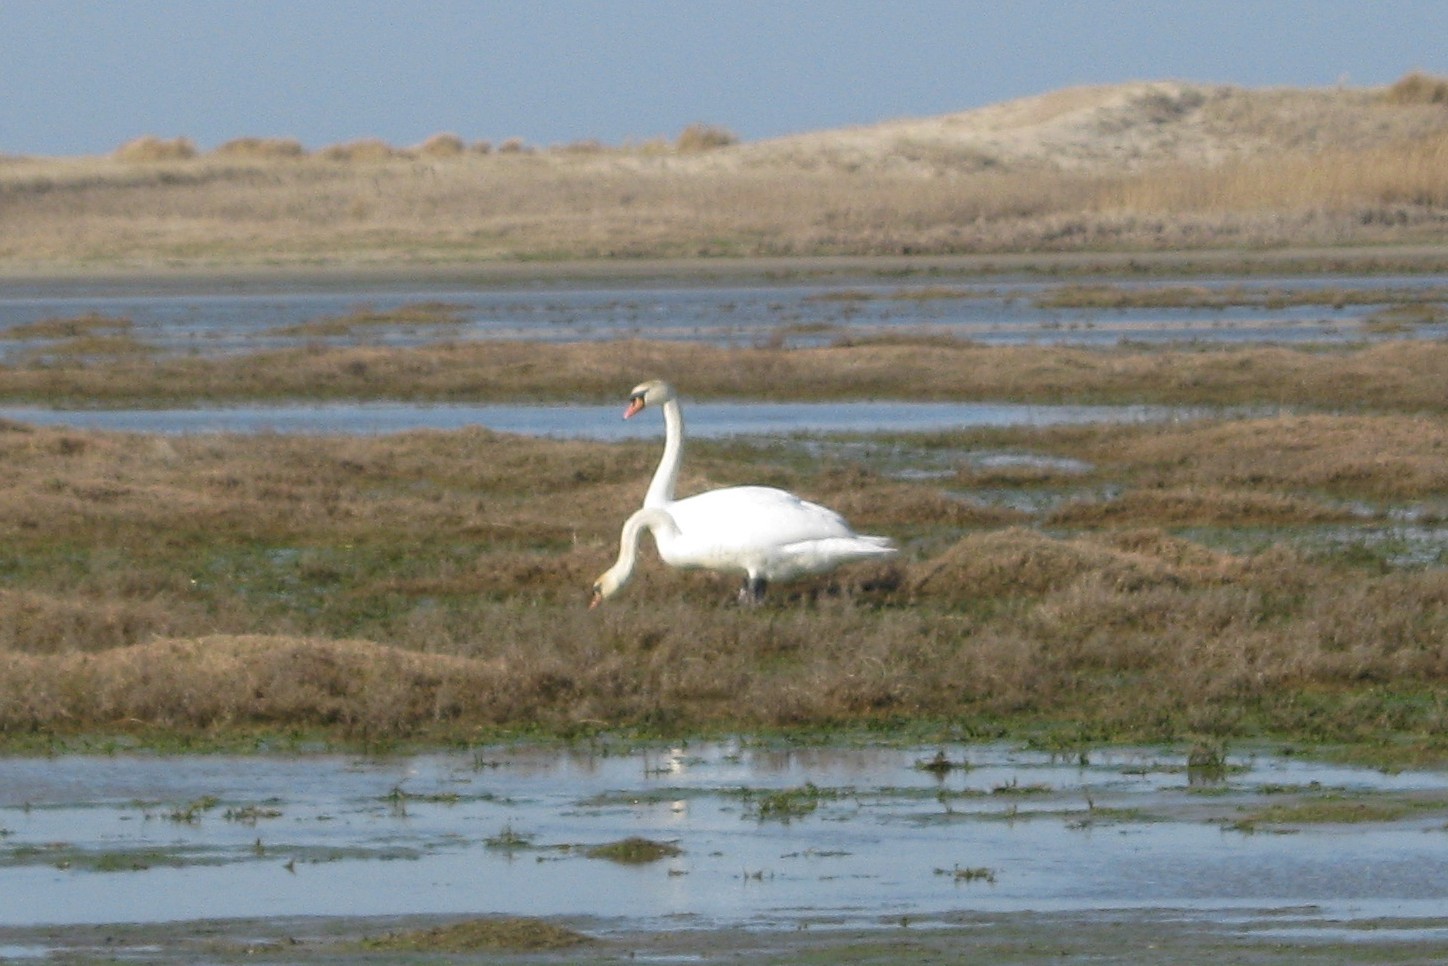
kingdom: Animalia
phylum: Chordata
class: Aves
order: Anseriformes
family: Anatidae
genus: Cygnus
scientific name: Cygnus olor
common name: Mute swan
